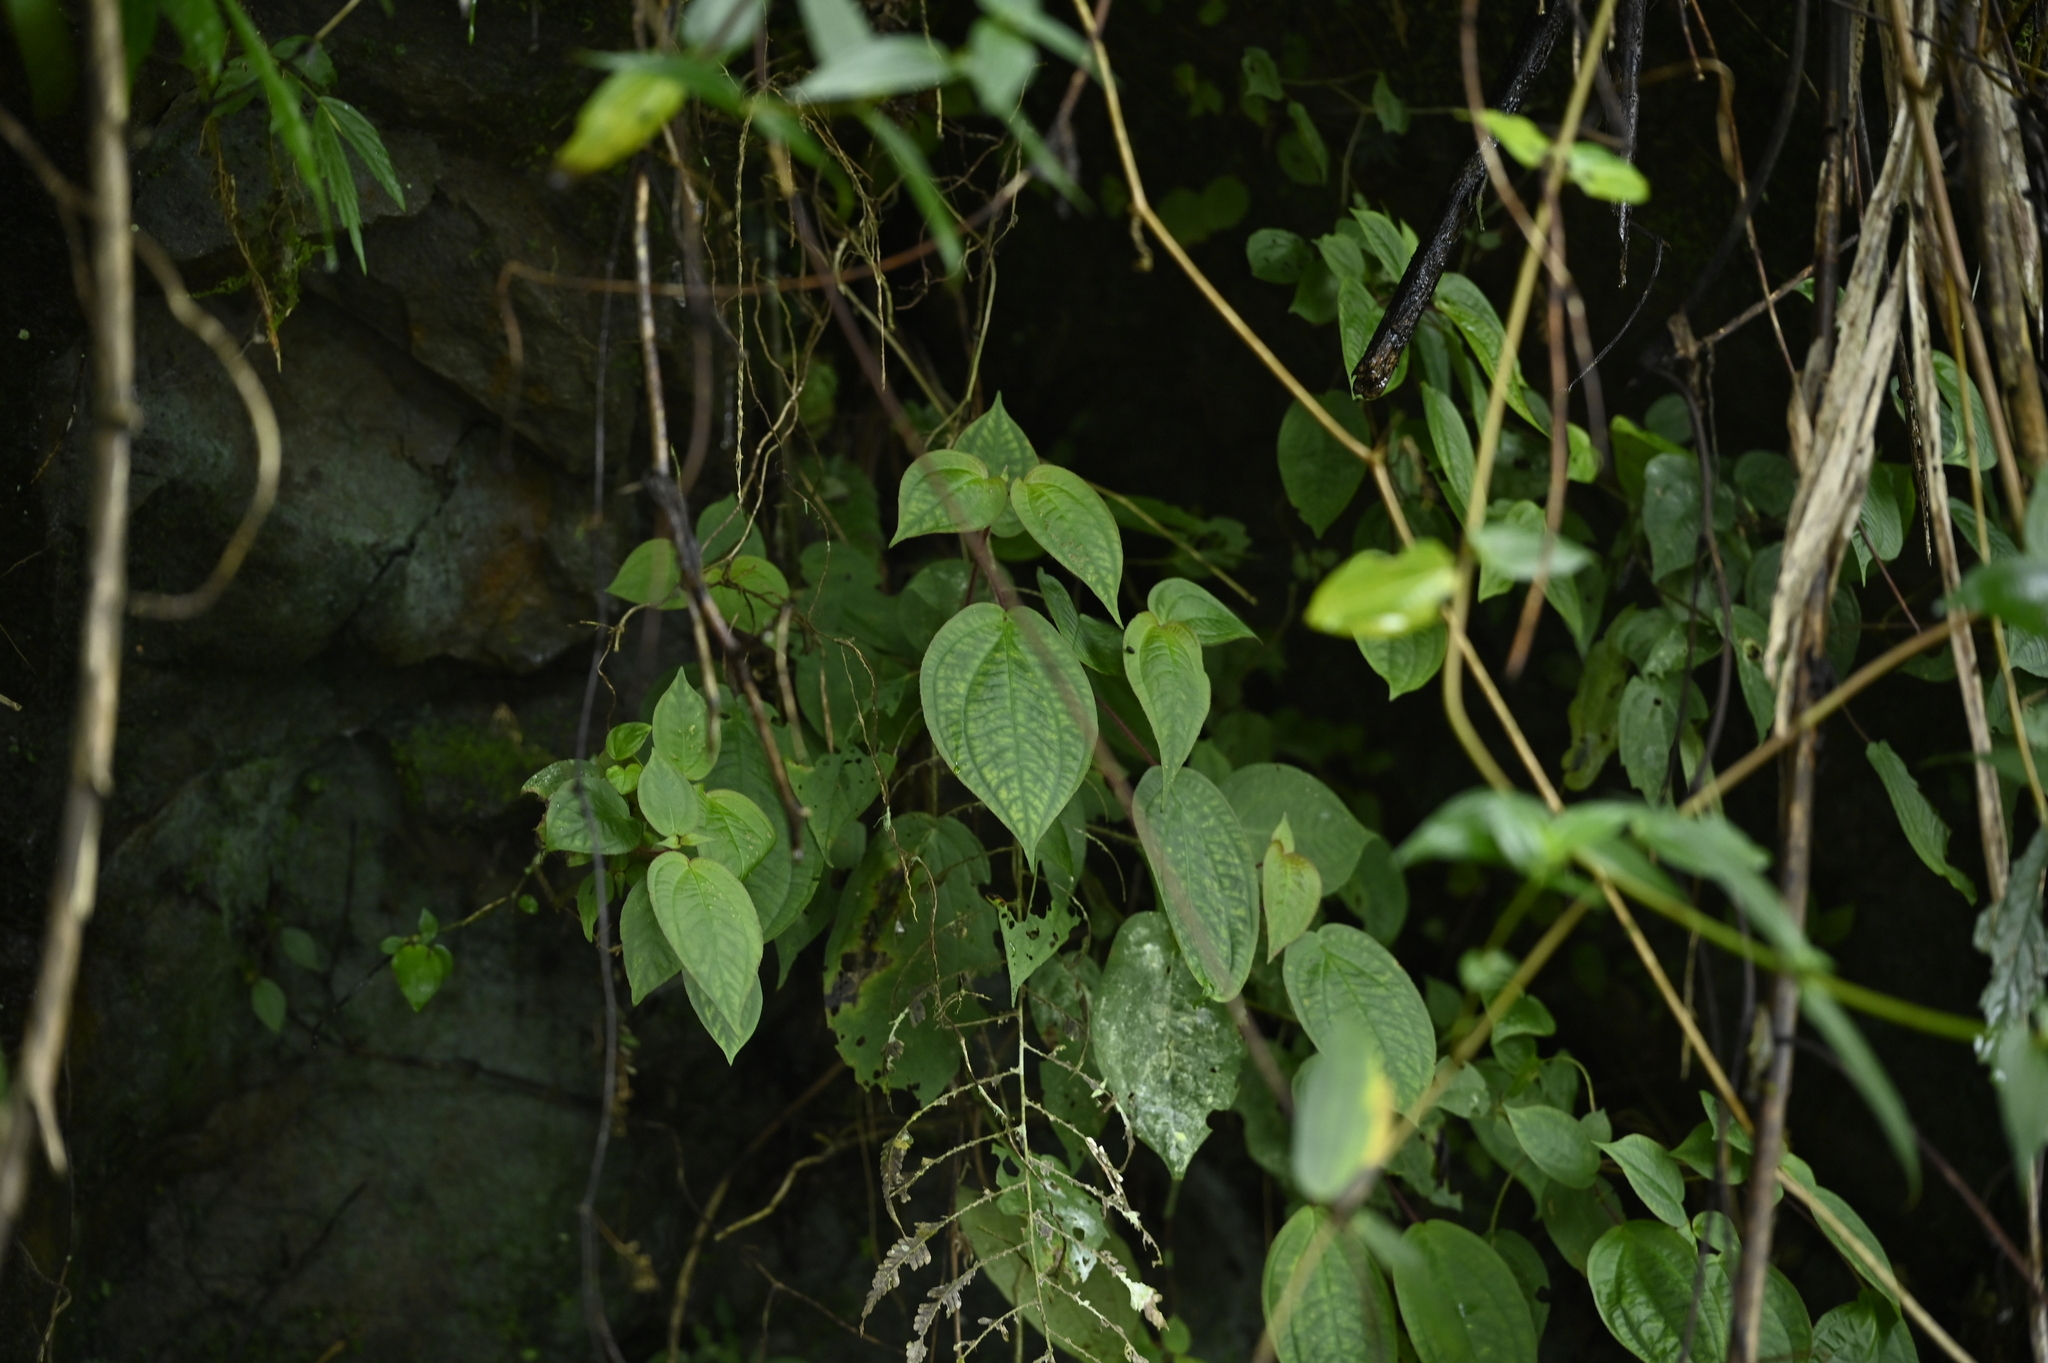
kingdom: Plantae
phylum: Tracheophyta
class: Magnoliopsida
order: Myrtales
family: Melastomataceae
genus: Bredia
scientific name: Bredia hirsuta
